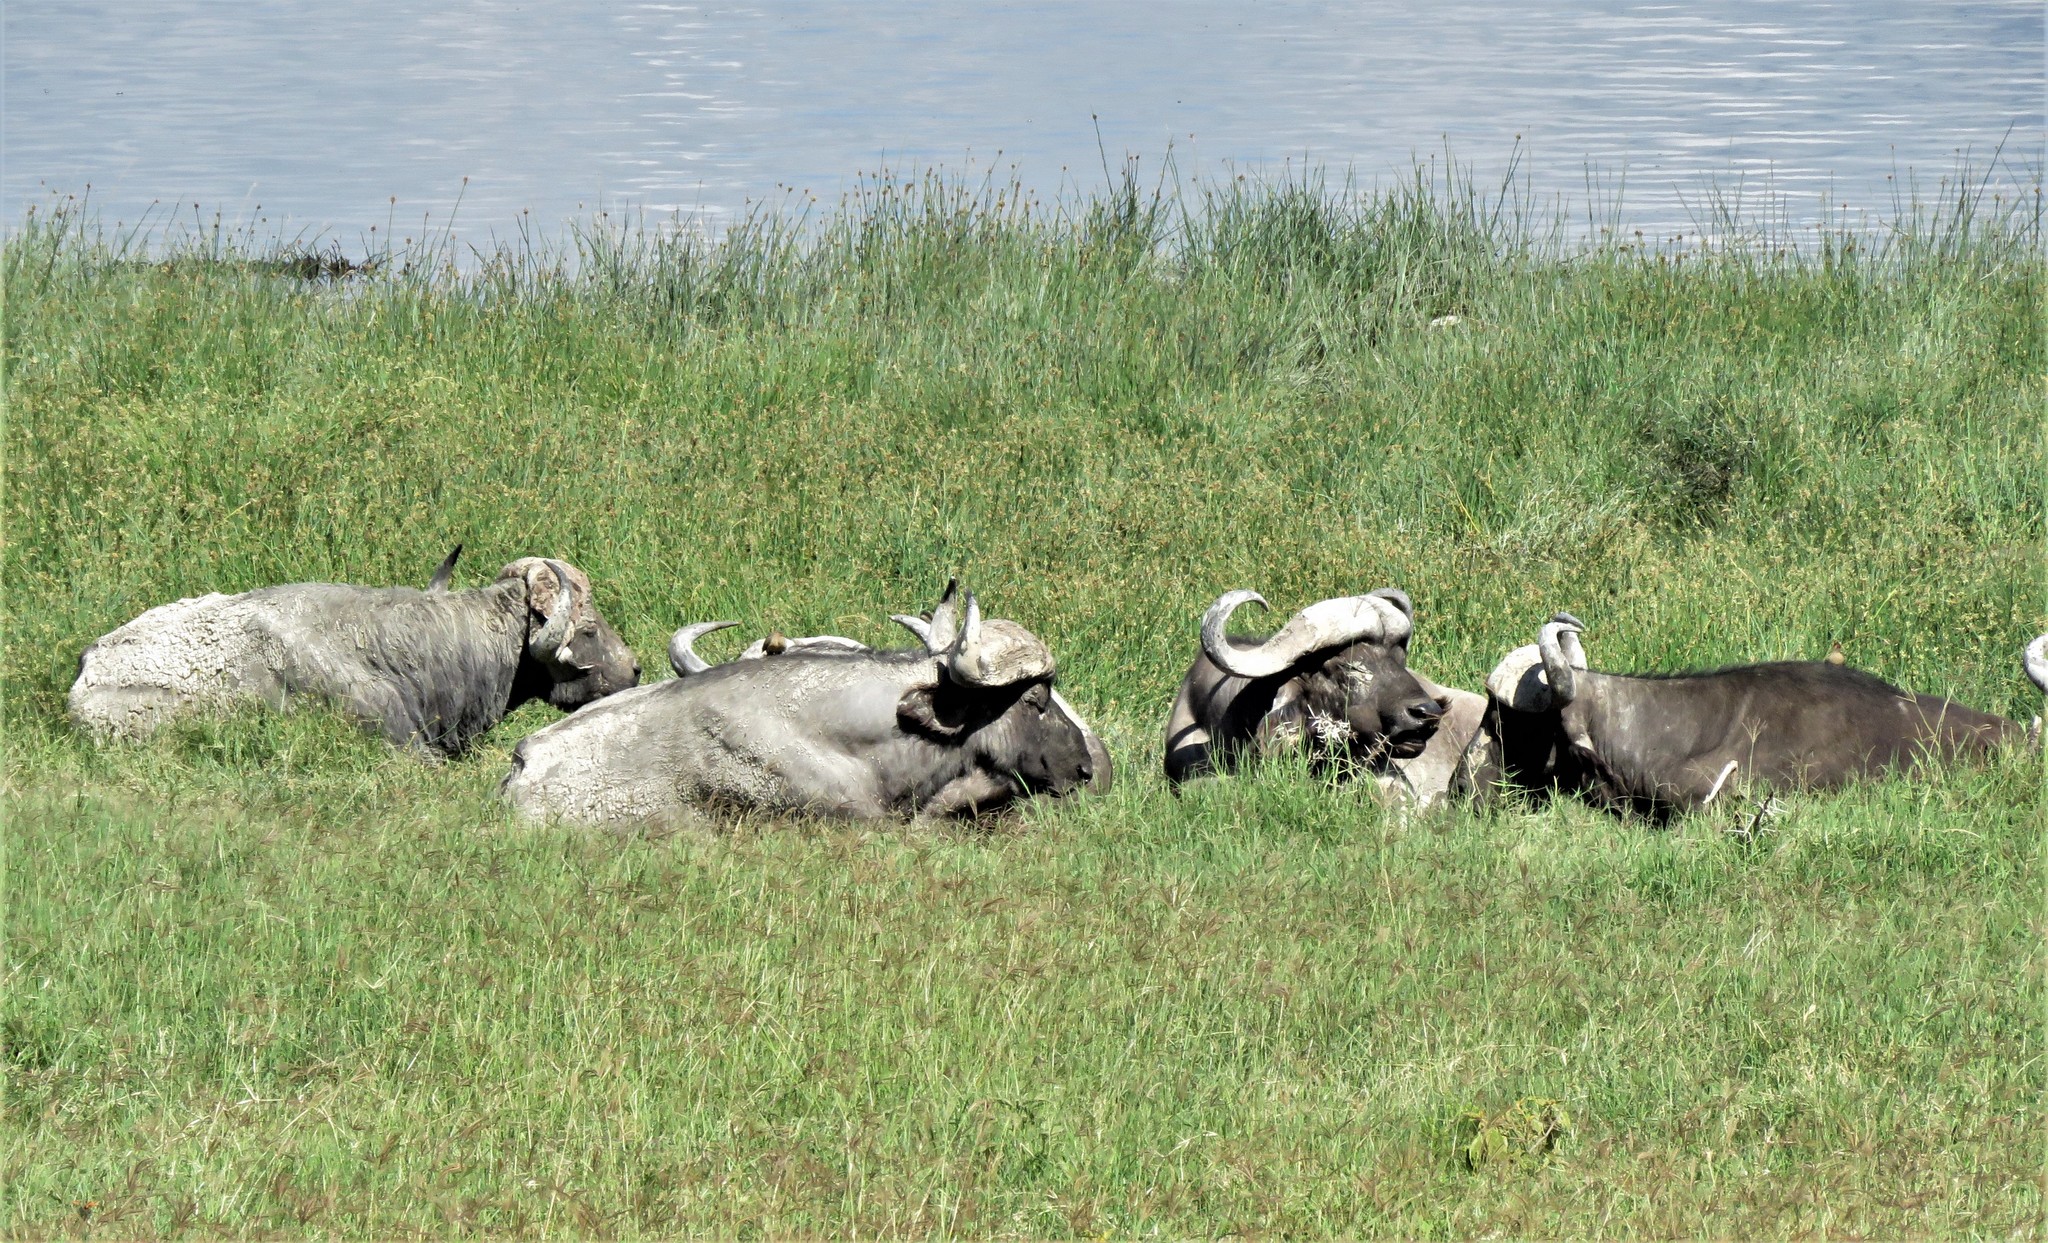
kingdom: Animalia
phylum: Chordata
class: Mammalia
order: Artiodactyla
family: Bovidae
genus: Syncerus
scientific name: Syncerus caffer
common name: African buffalo
